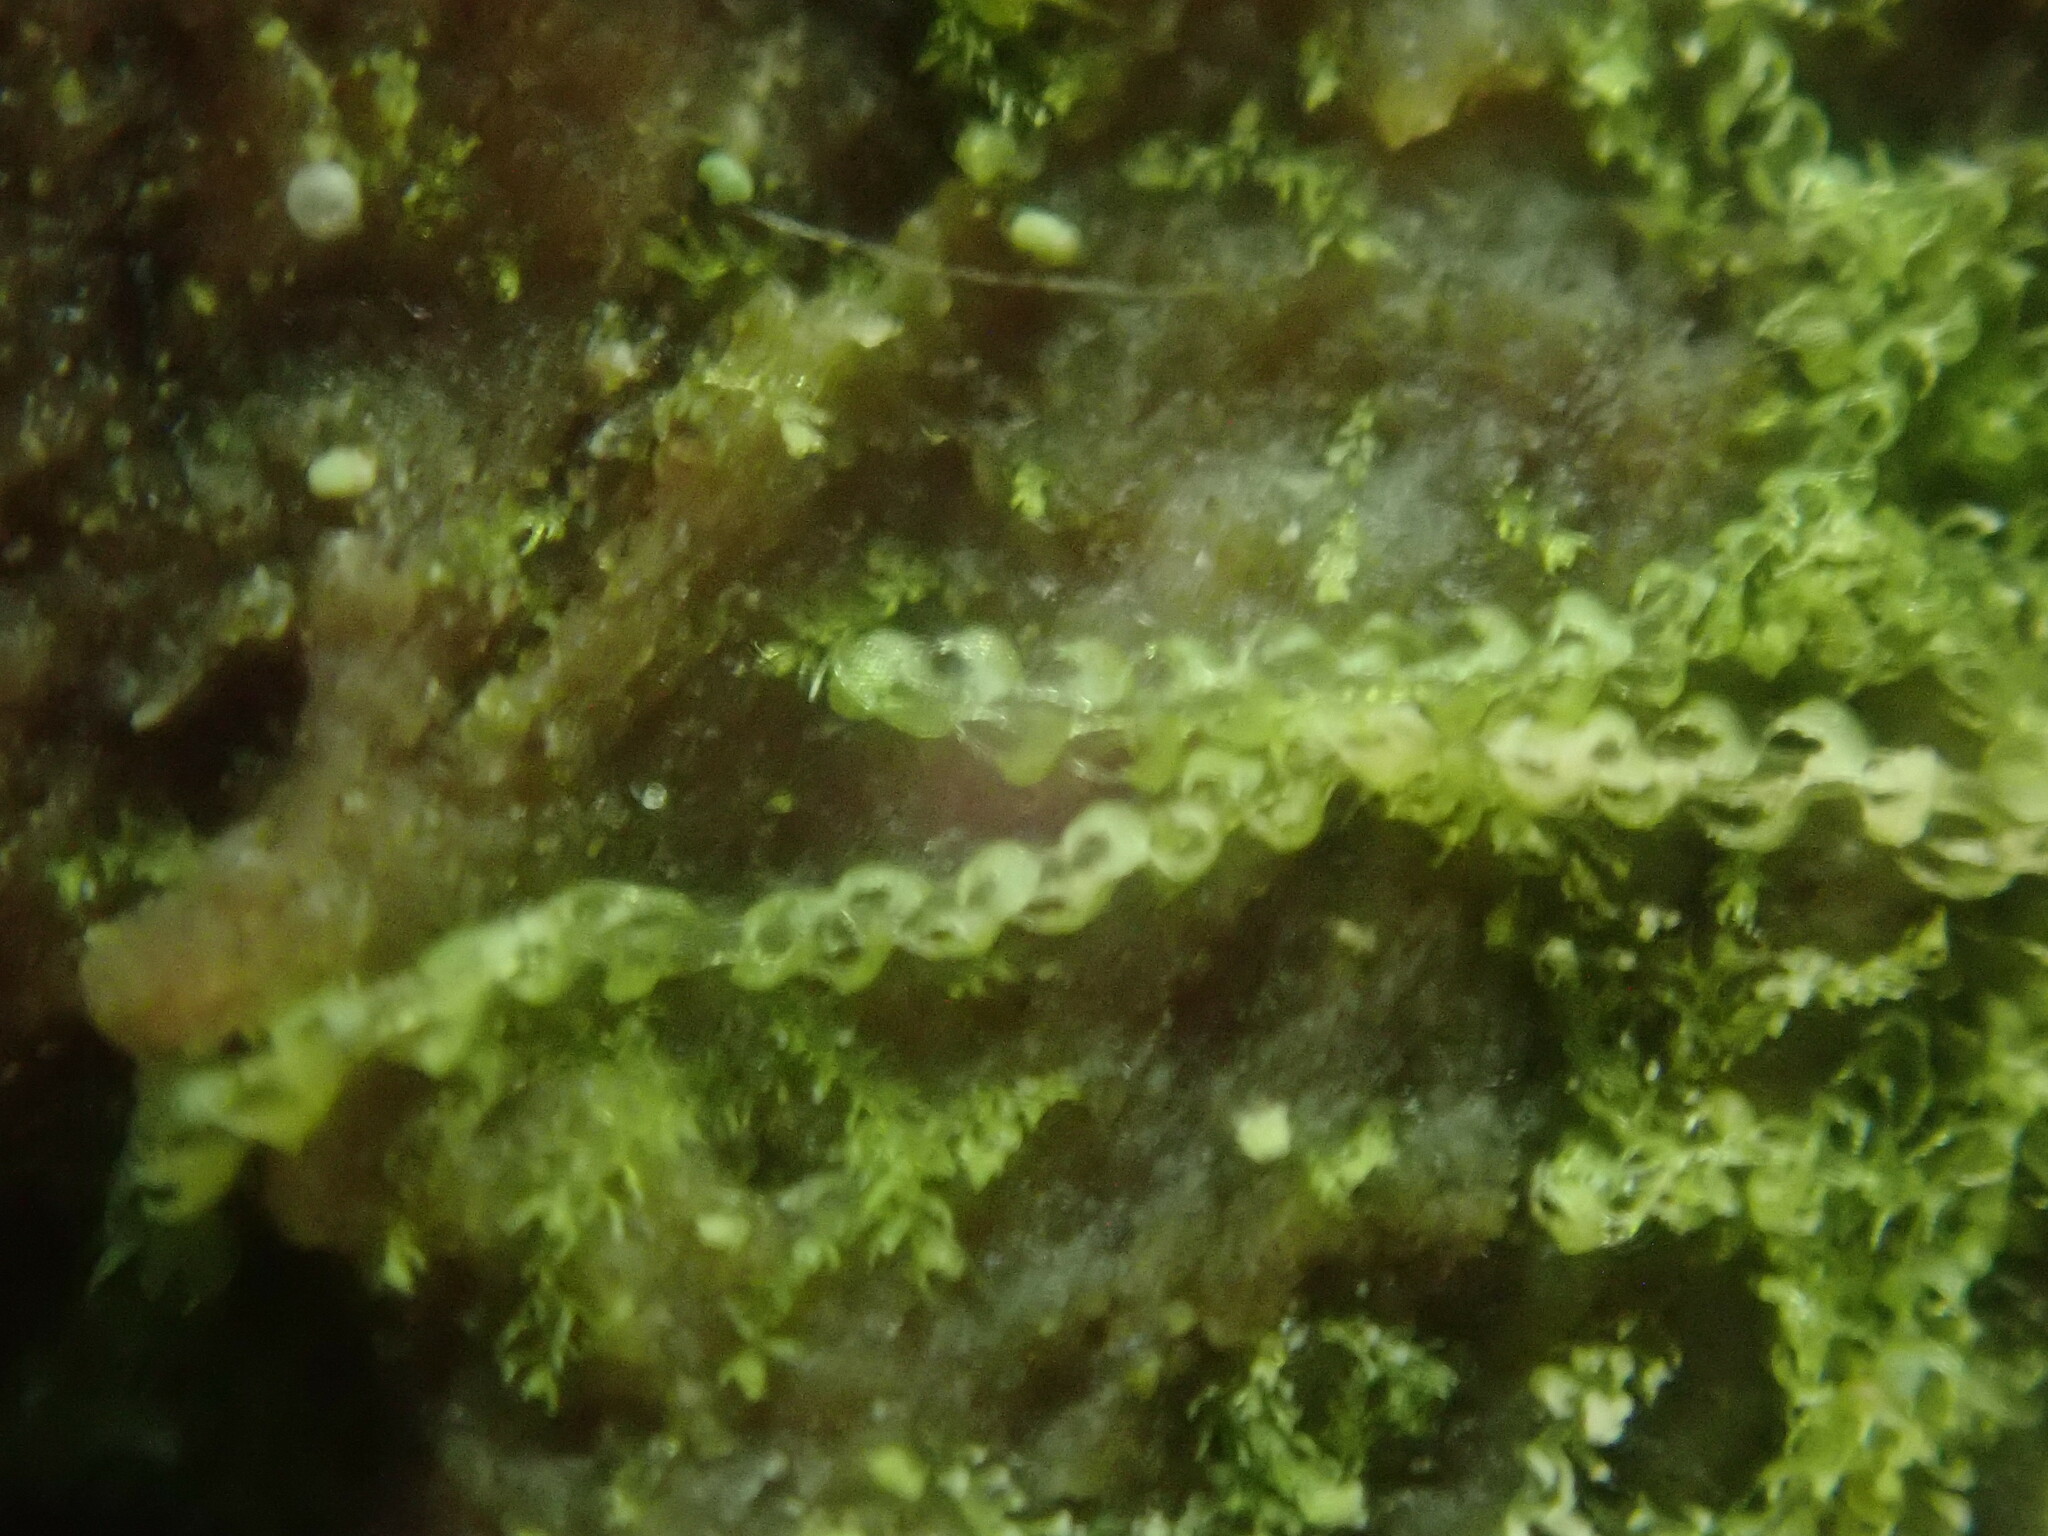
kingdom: Plantae
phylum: Marchantiophyta
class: Jungermanniopsida
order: Jungermanniales
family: Cephaloziaceae
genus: Nowellia
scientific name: Nowellia curvifolia
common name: Wood rustwort
